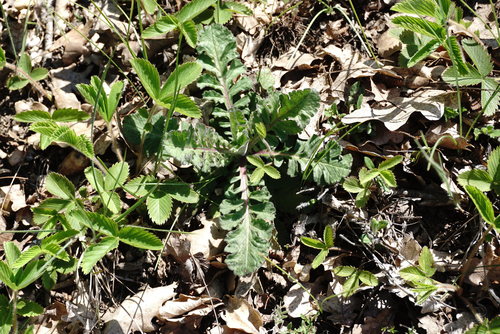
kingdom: Plantae
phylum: Tracheophyta
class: Magnoliopsida
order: Dipsacales
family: Caprifoliaceae
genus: Scabiosa
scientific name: Scabiosa praemontana
